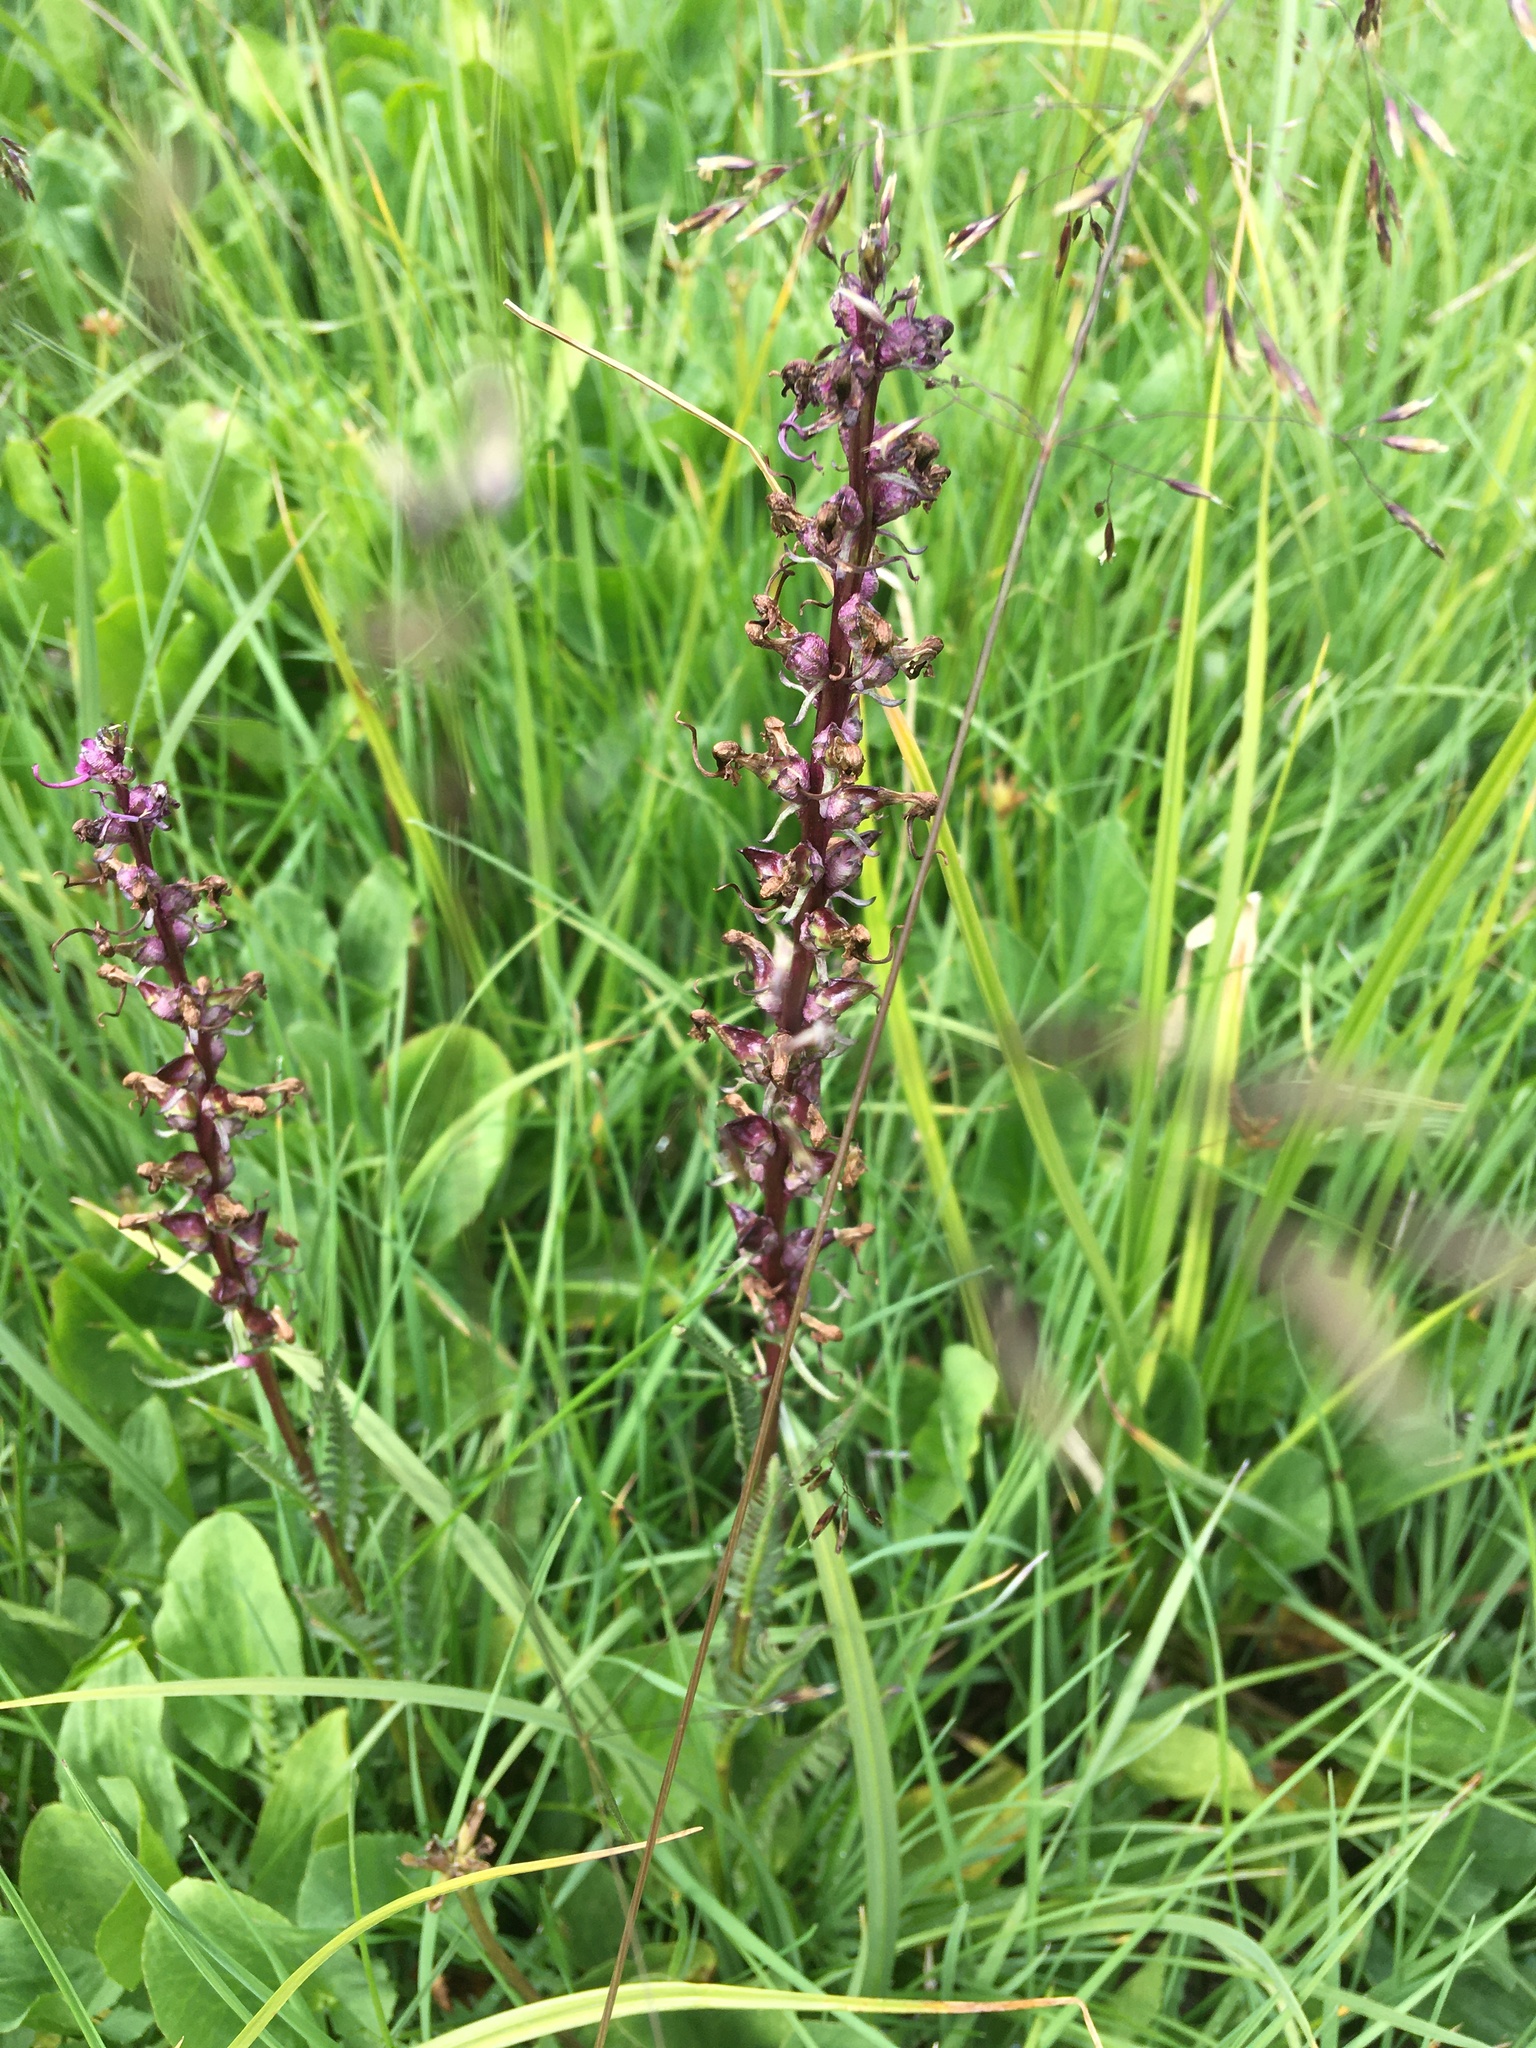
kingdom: Plantae
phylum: Tracheophyta
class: Magnoliopsida
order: Lamiales
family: Orobanchaceae
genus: Pedicularis
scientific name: Pedicularis groenlandica
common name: Elephant's-head
